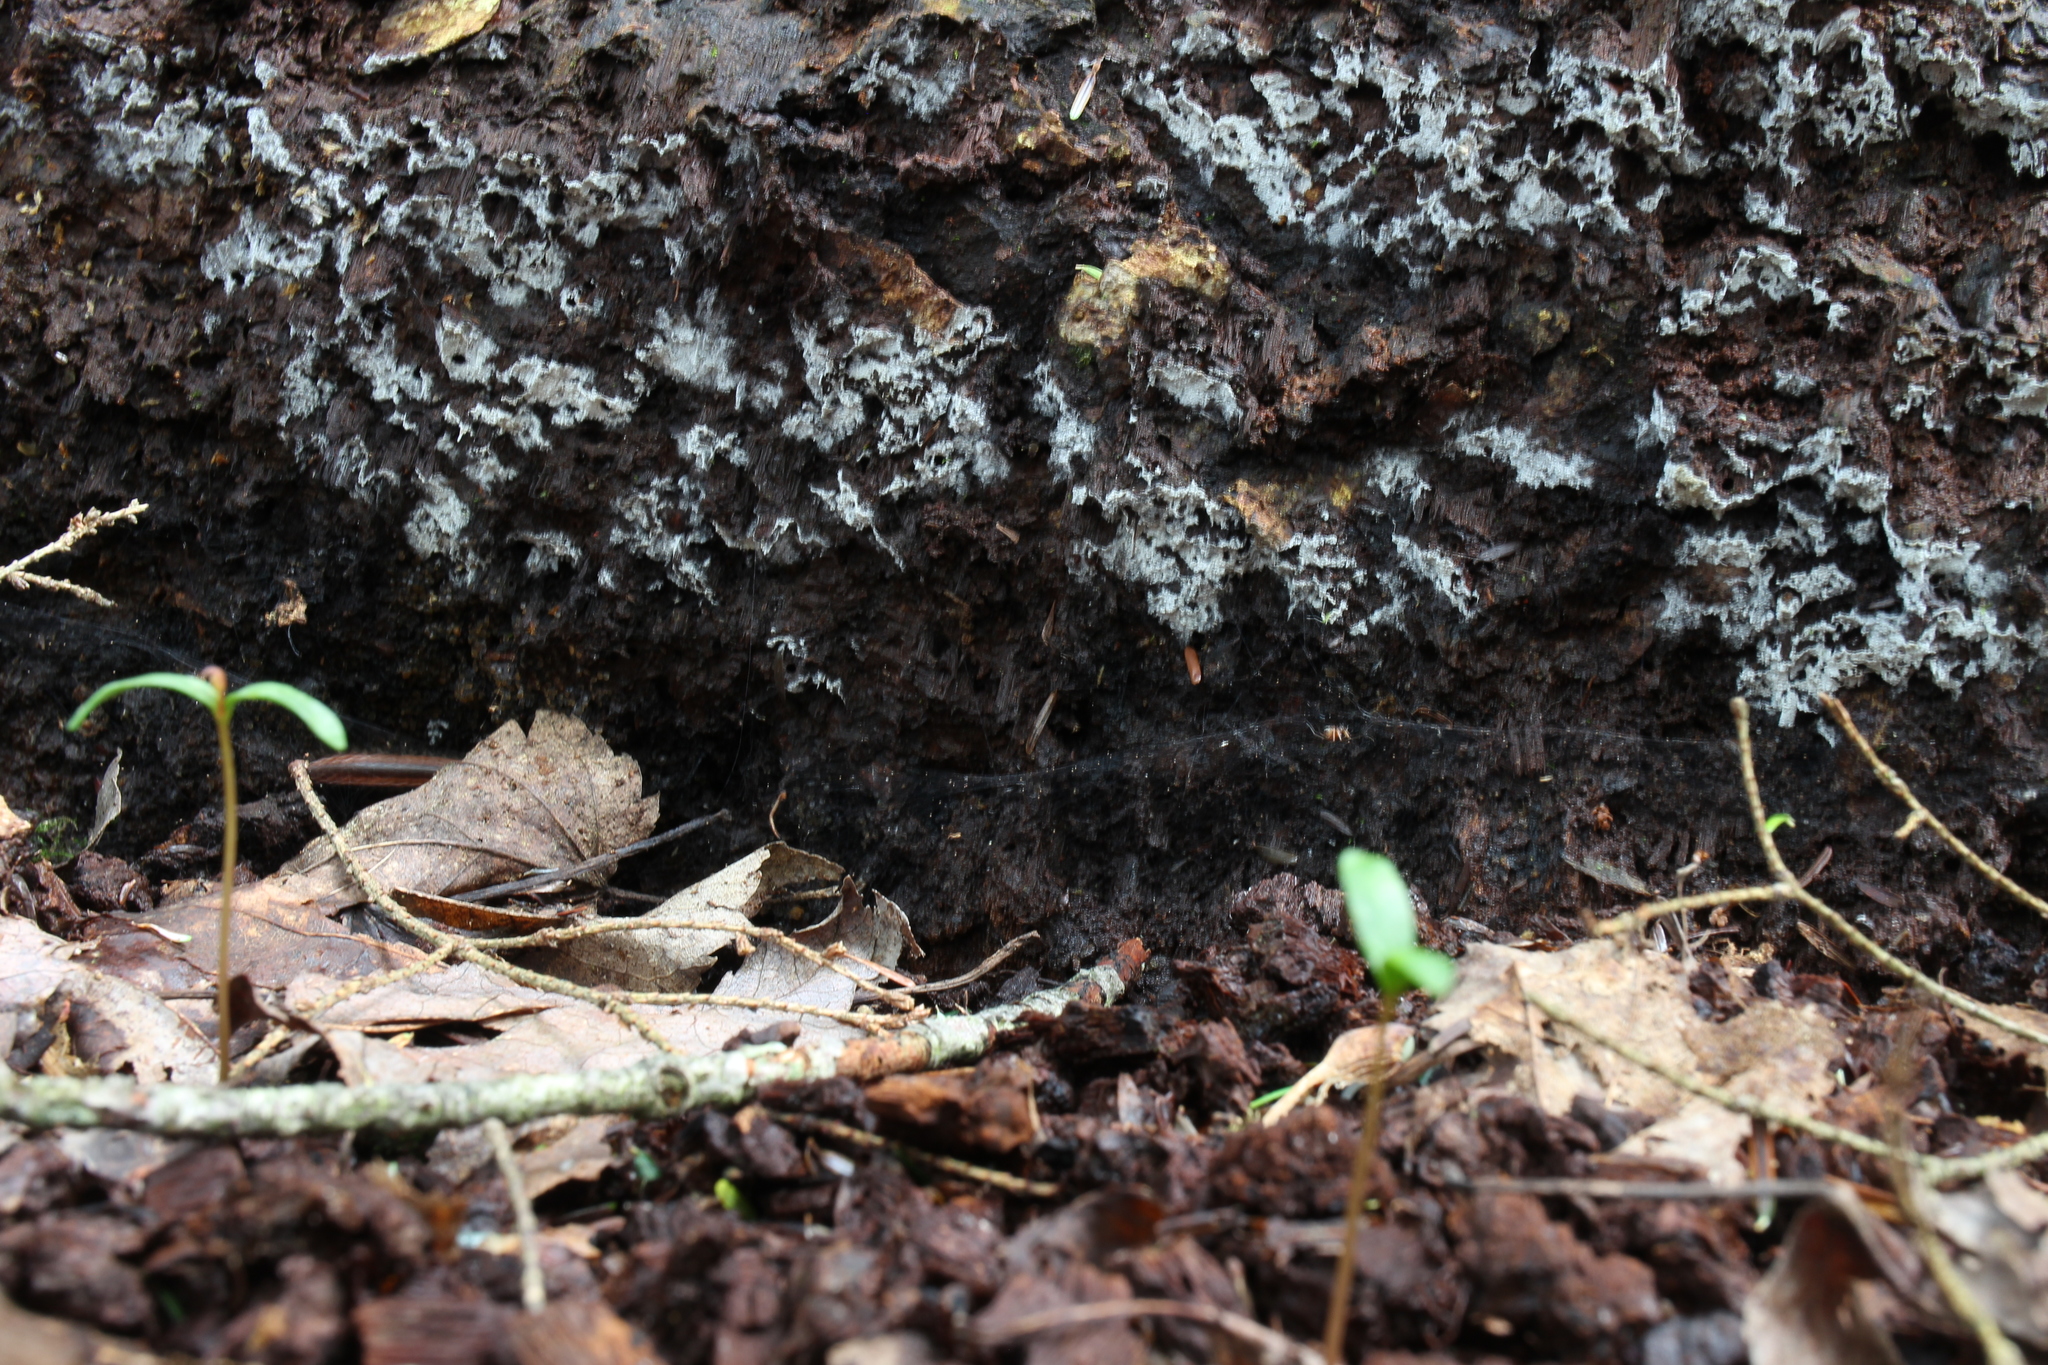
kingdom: Fungi
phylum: Basidiomycota
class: Agaricomycetes
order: Hymenochaetales
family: Hymenochaetaceae
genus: Rigidonotus
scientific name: Rigidonotus glomeratus
